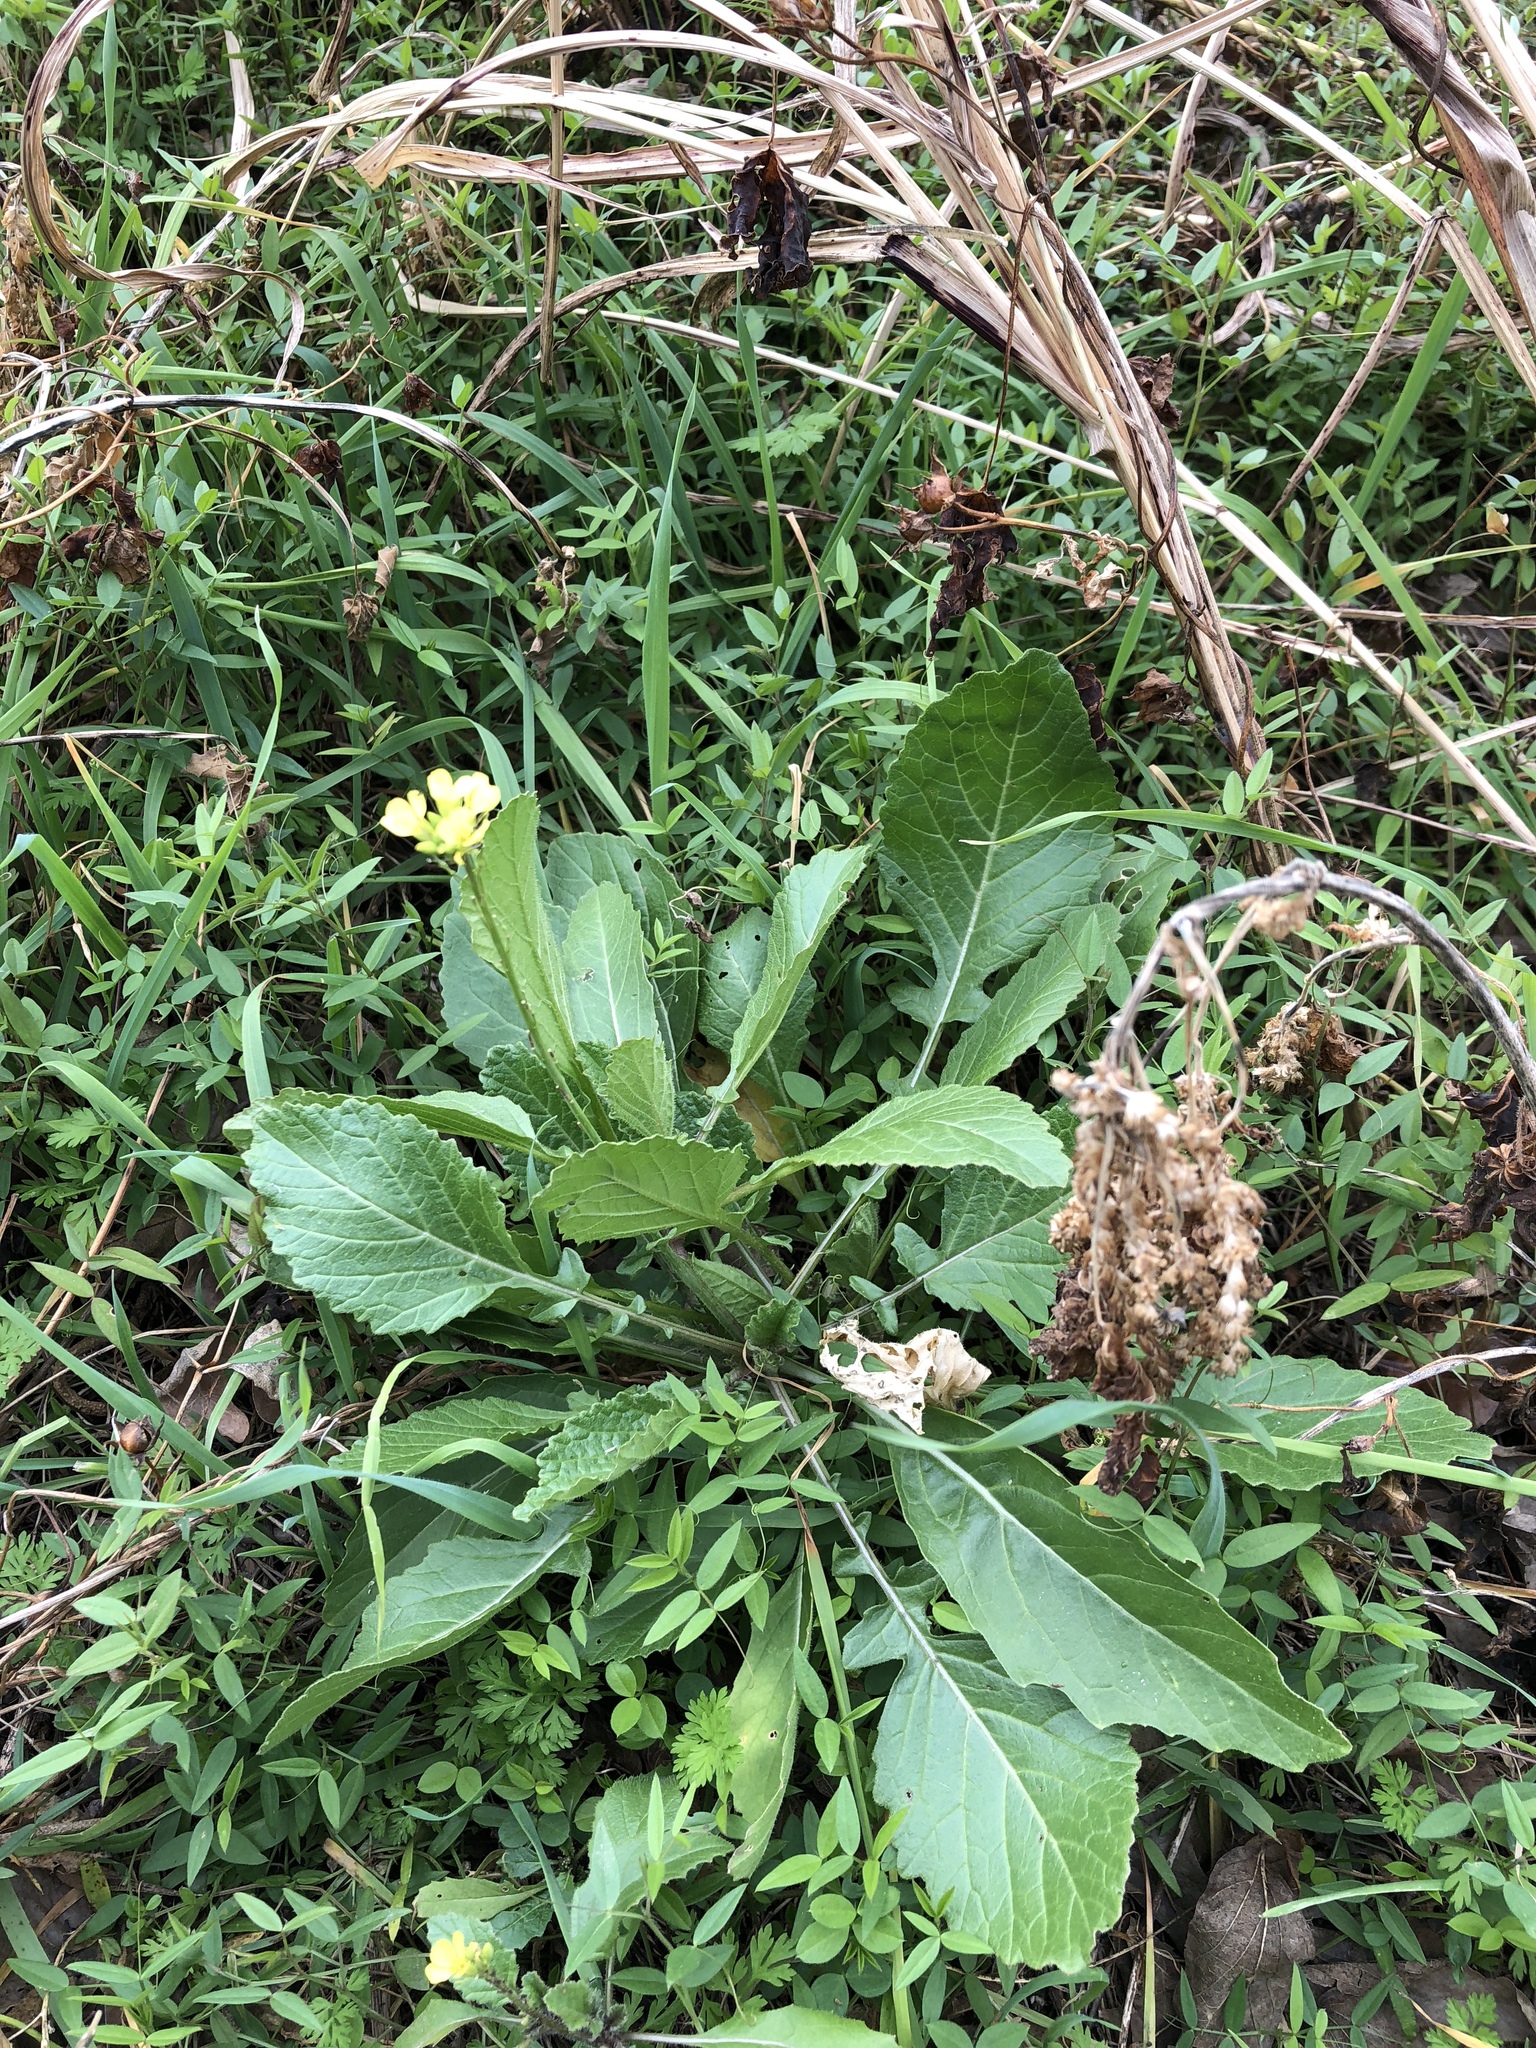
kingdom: Plantae
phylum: Tracheophyta
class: Magnoliopsida
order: Brassicales
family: Brassicaceae
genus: Rapistrum
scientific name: Rapistrum rugosum
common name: Annual bastardcabbage
